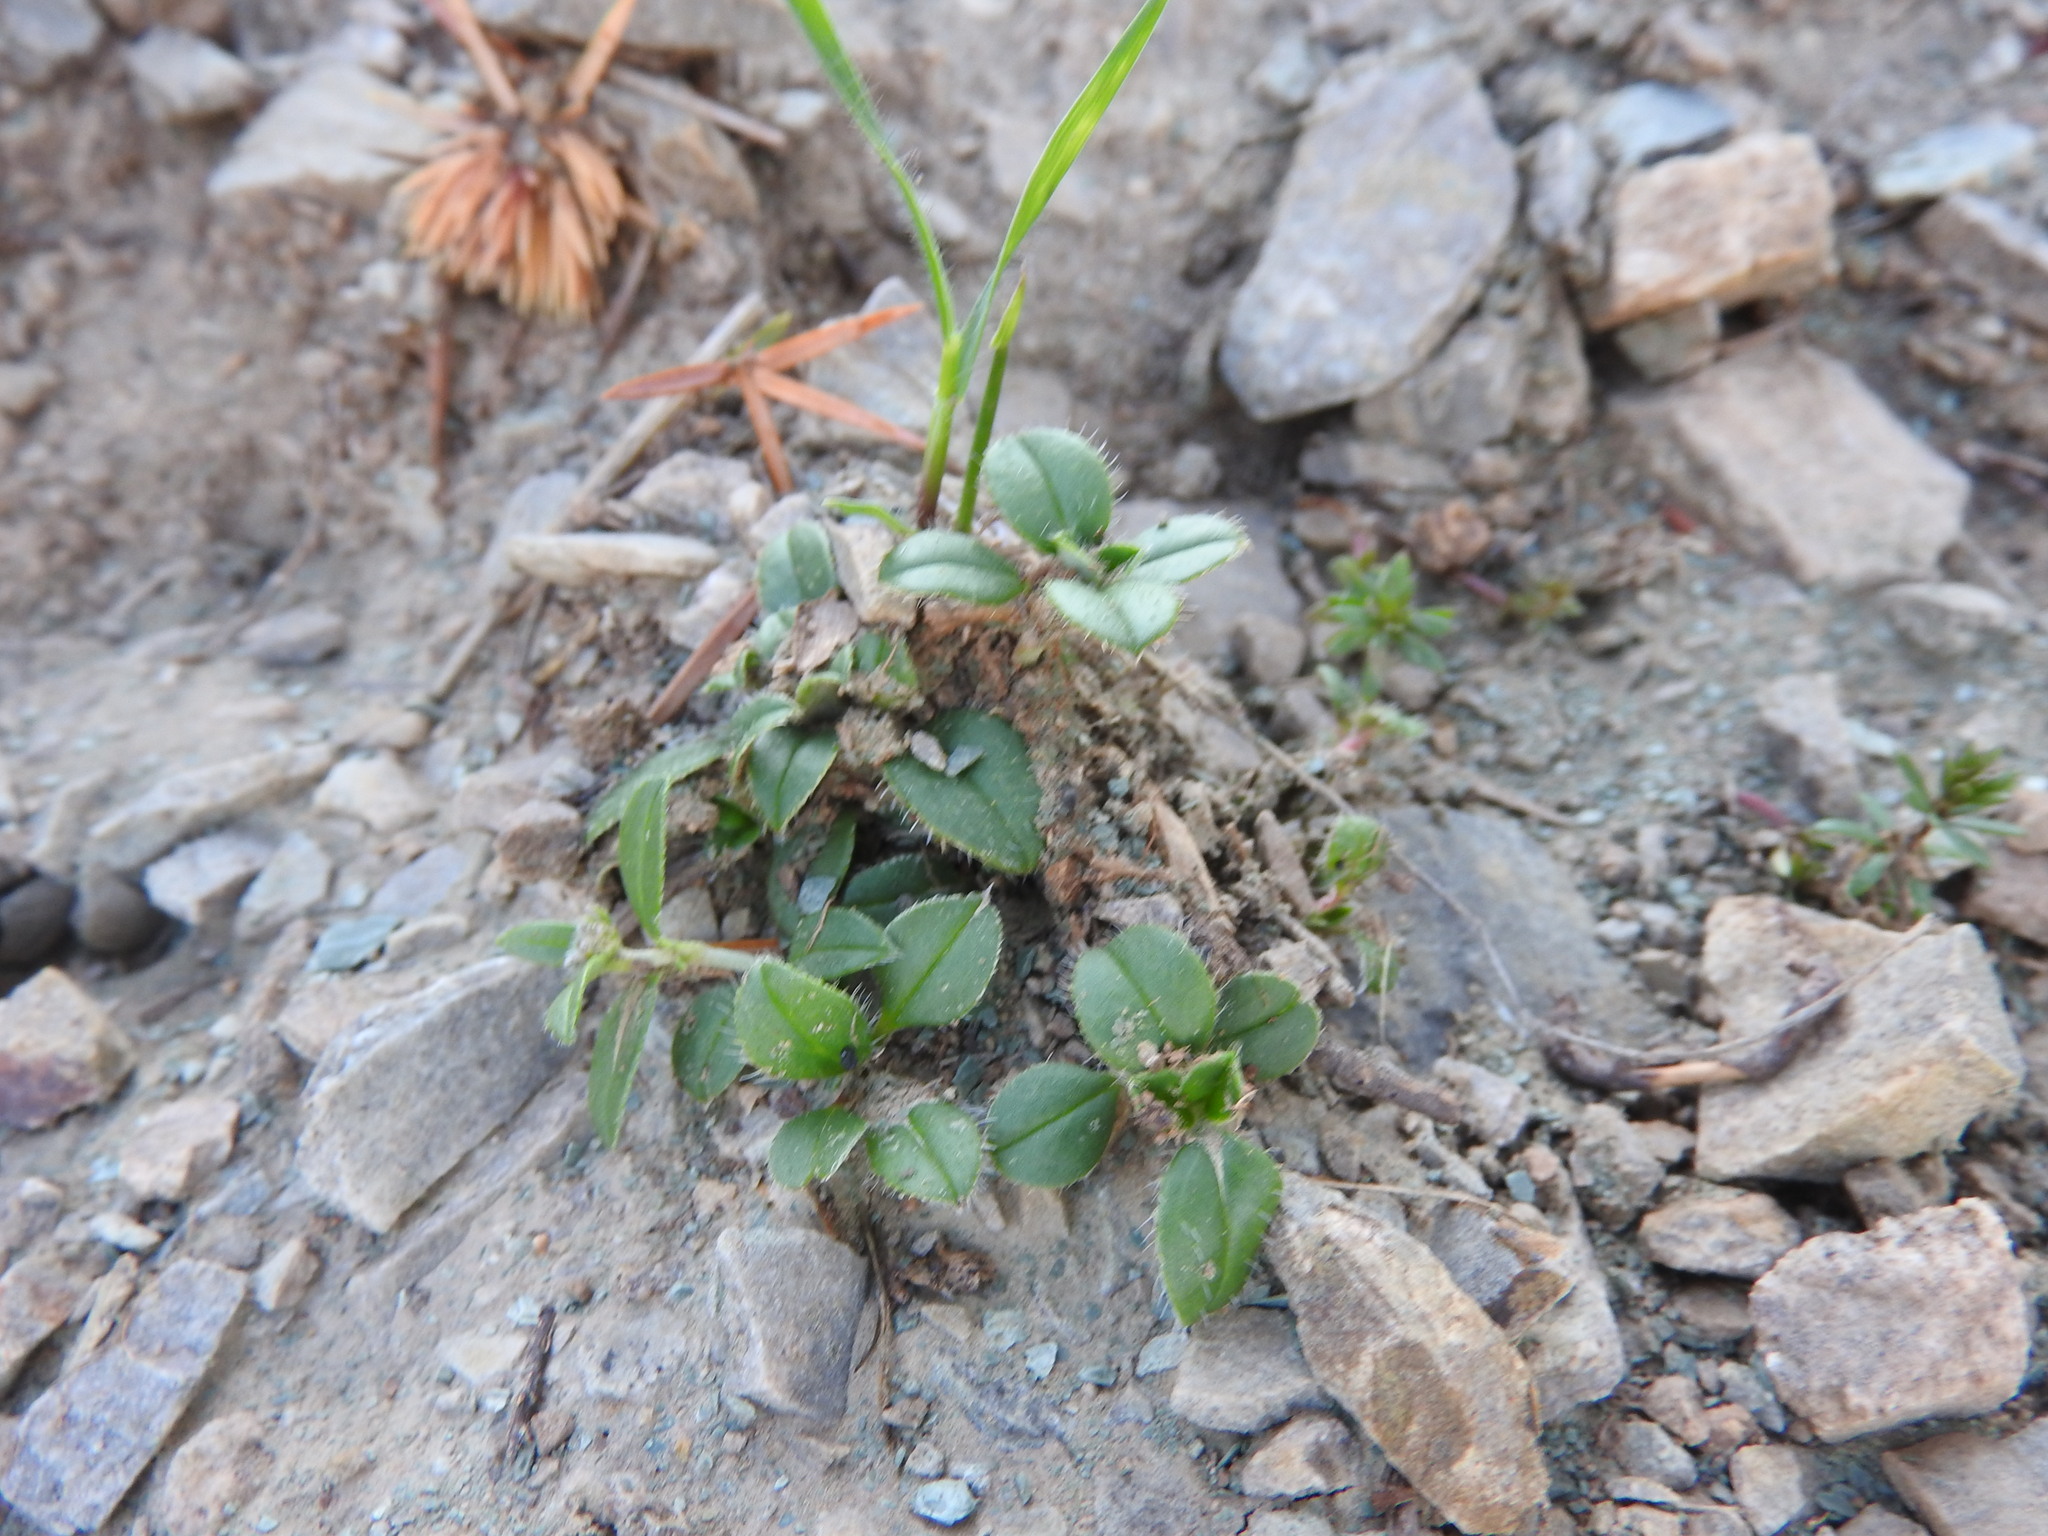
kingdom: Plantae
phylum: Tracheophyta
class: Magnoliopsida
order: Malvales
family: Cistaceae
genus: Helianthemum
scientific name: Helianthemum cinereum
